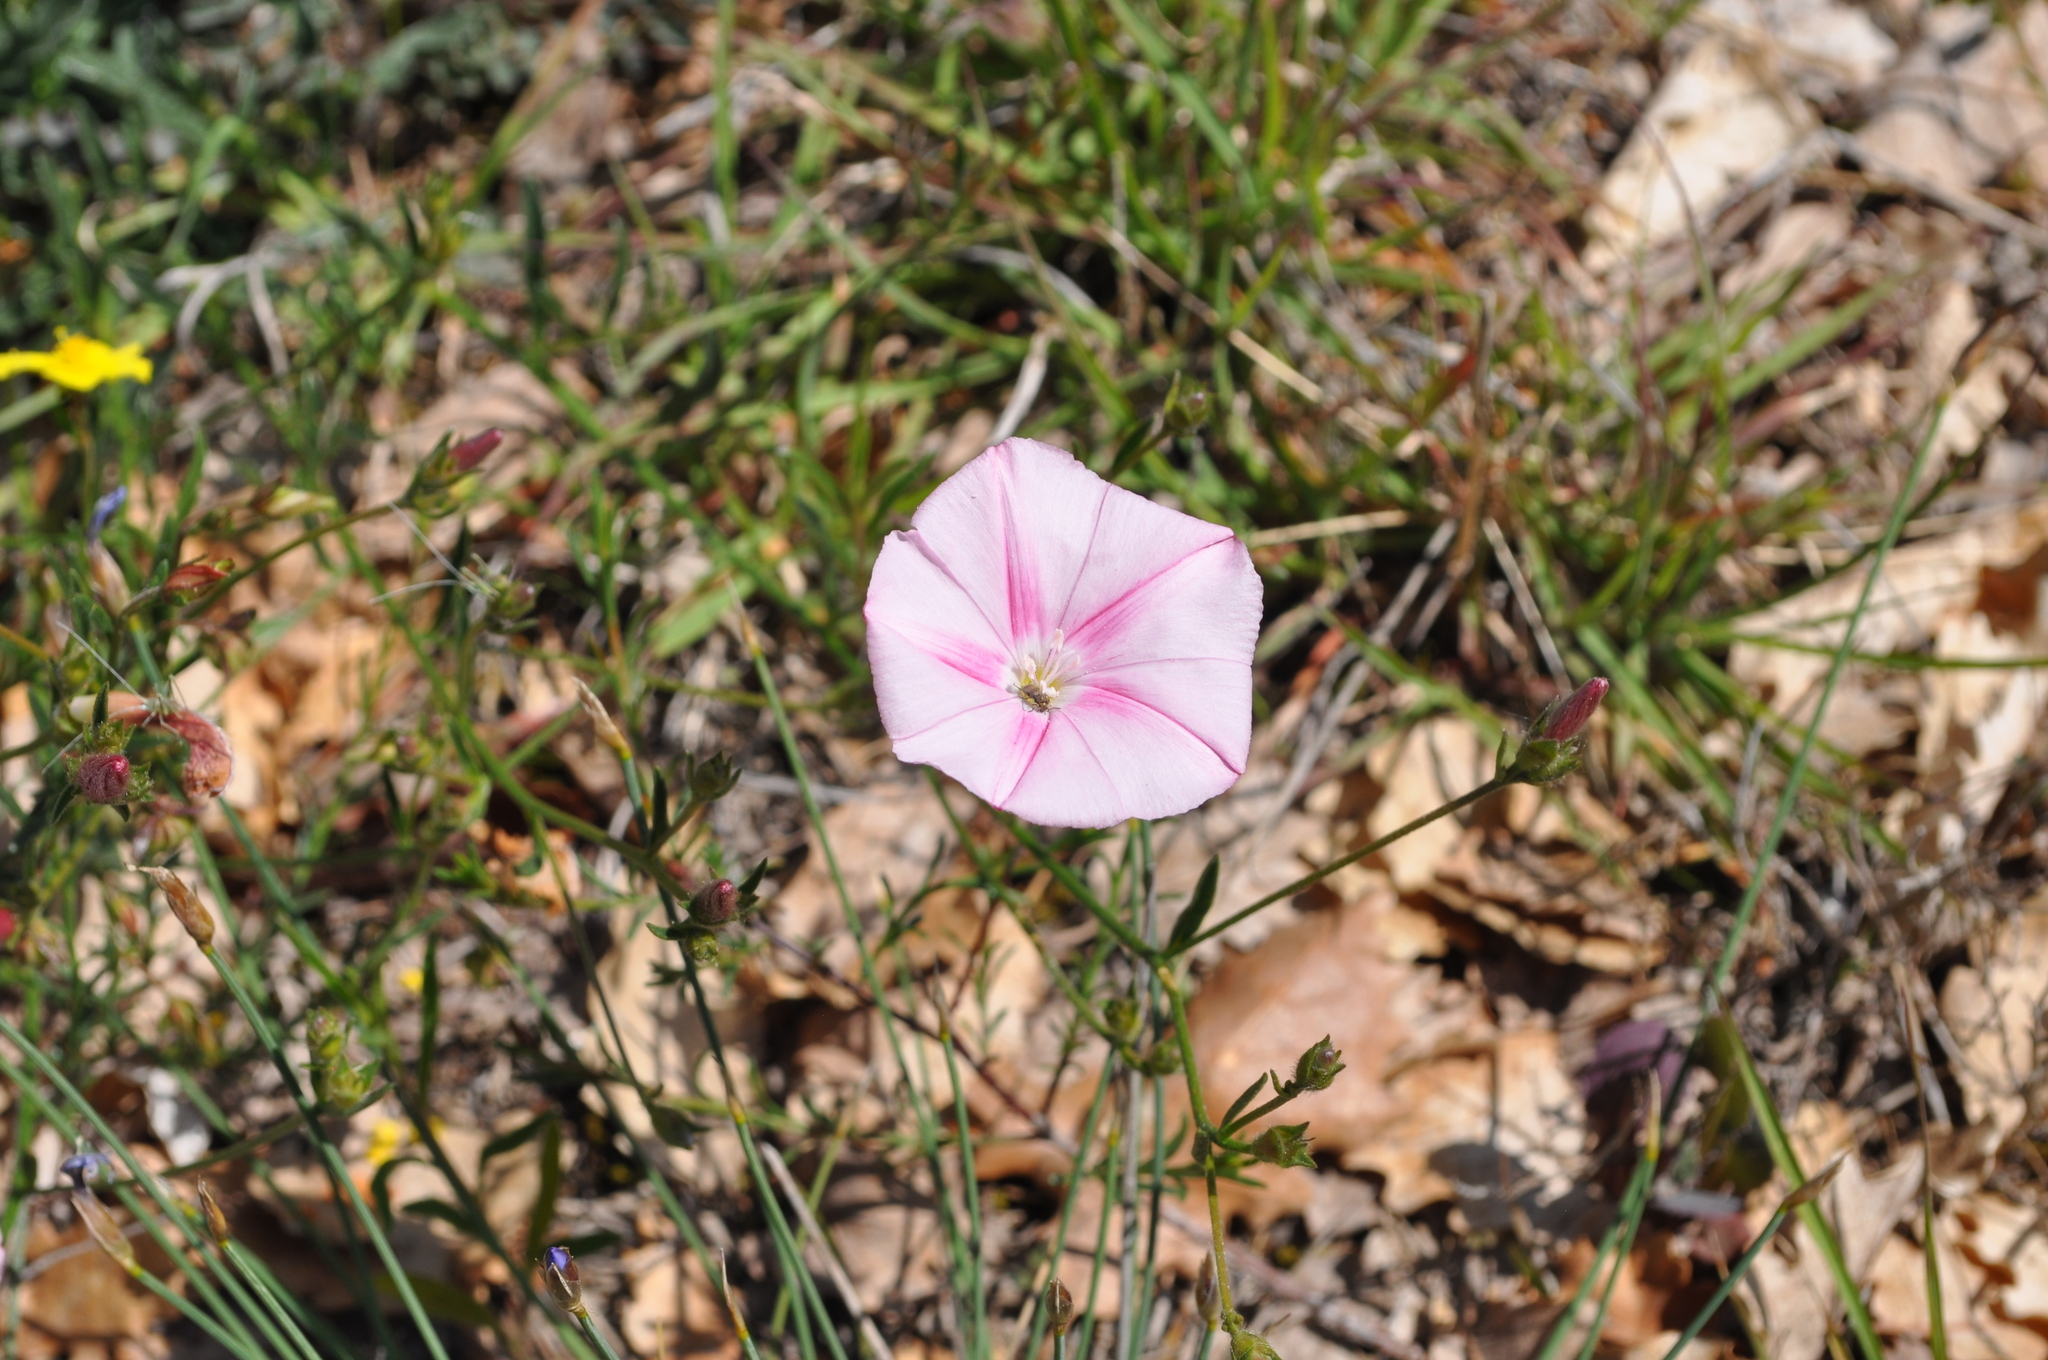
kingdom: Plantae
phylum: Tracheophyta
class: Magnoliopsida
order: Solanales
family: Convolvulaceae
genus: Convolvulus
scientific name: Convolvulus cantabrica
